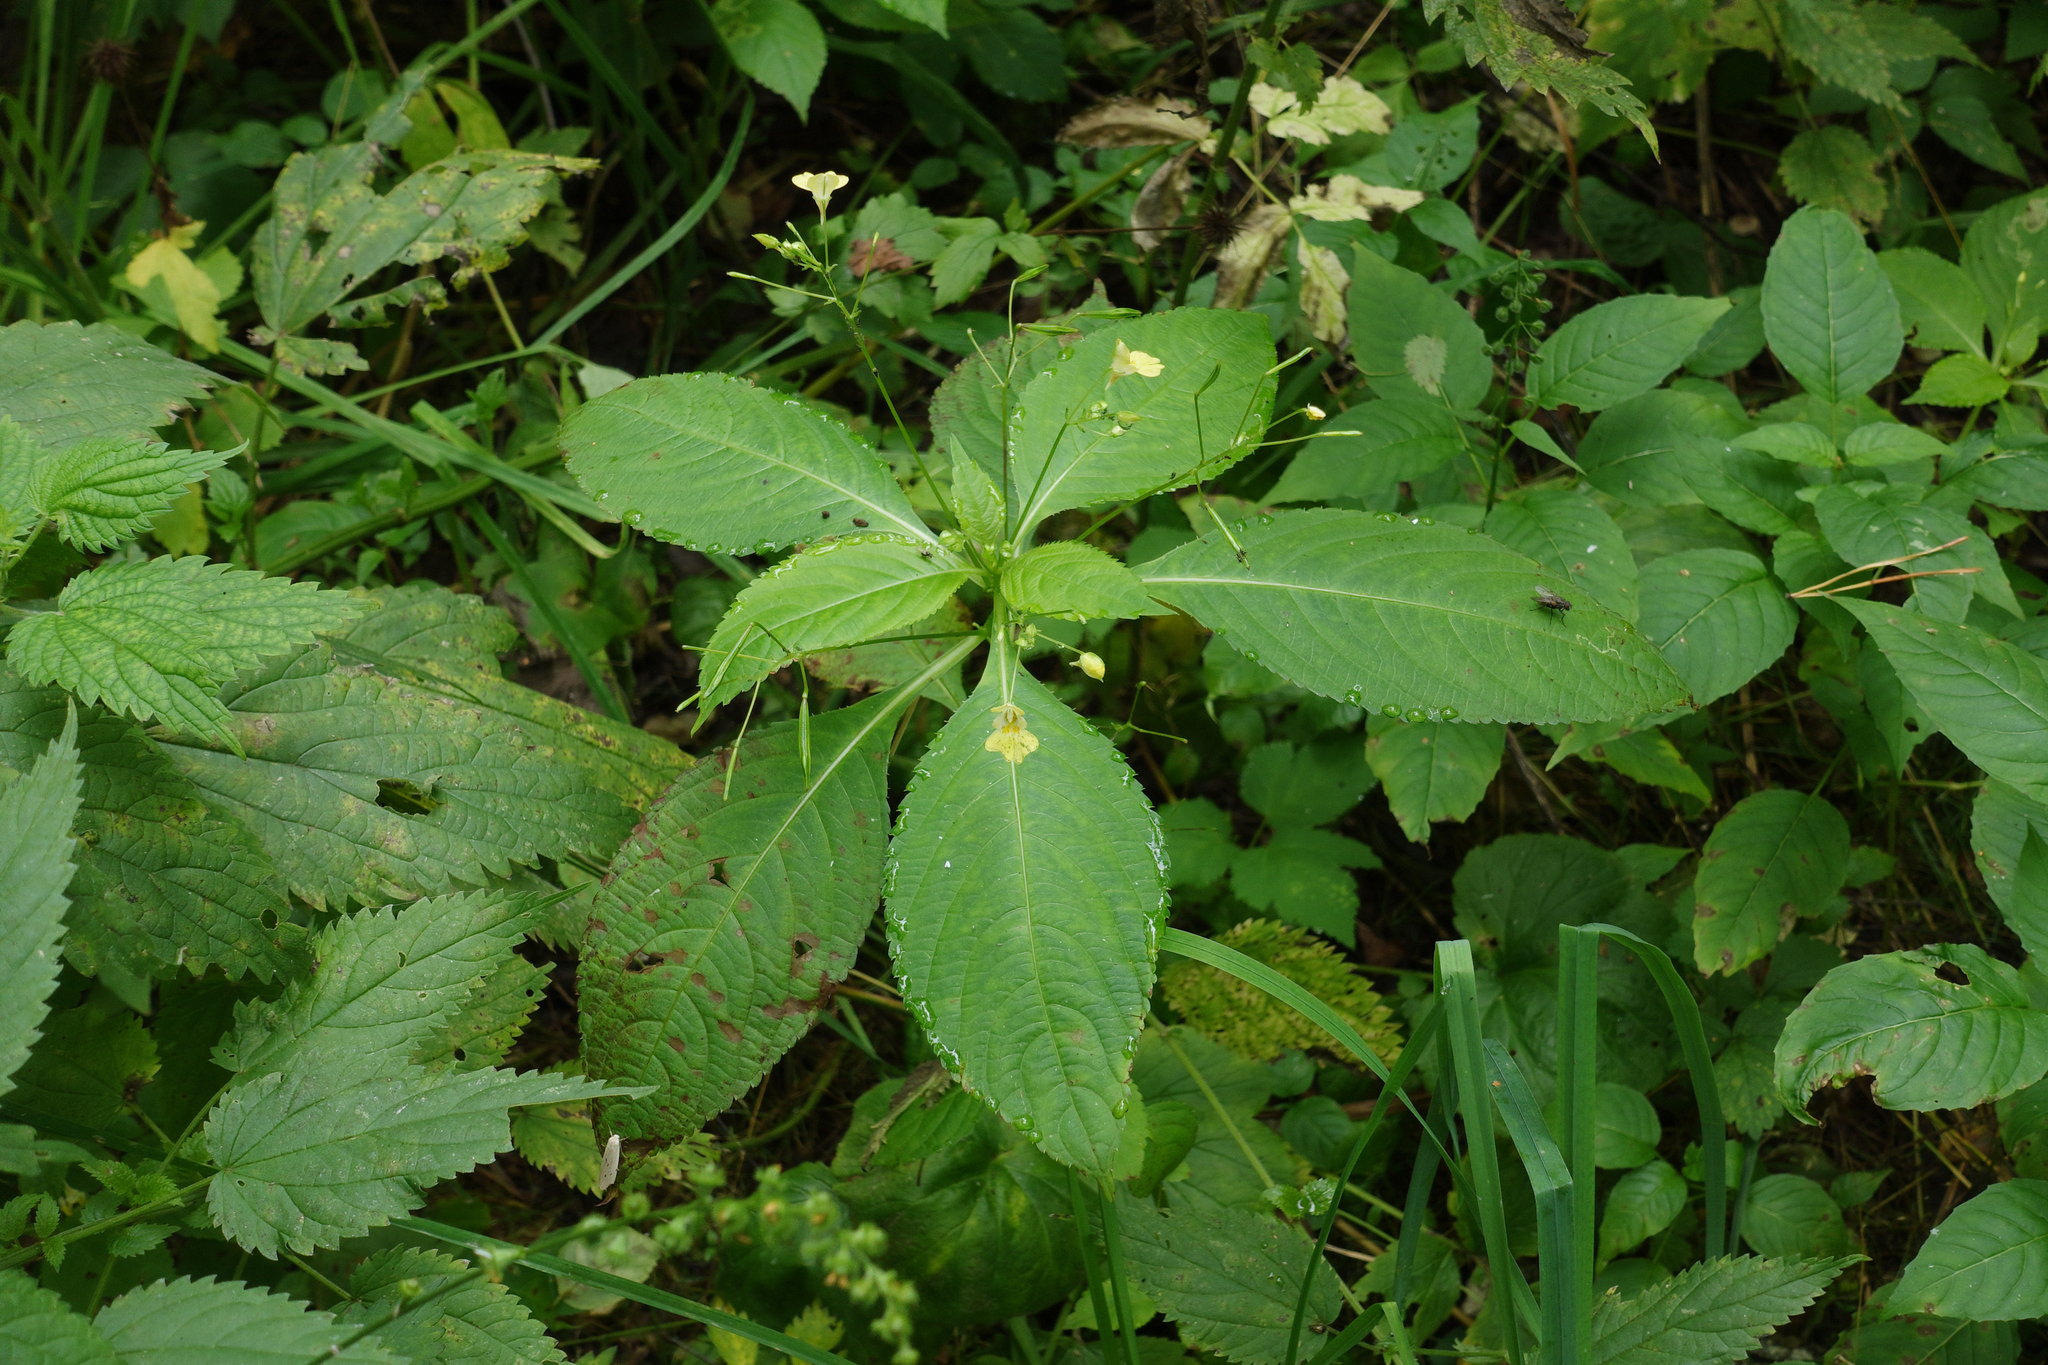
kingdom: Plantae
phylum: Tracheophyta
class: Magnoliopsida
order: Ericales
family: Balsaminaceae
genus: Impatiens
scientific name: Impatiens parviflora
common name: Small balsam
